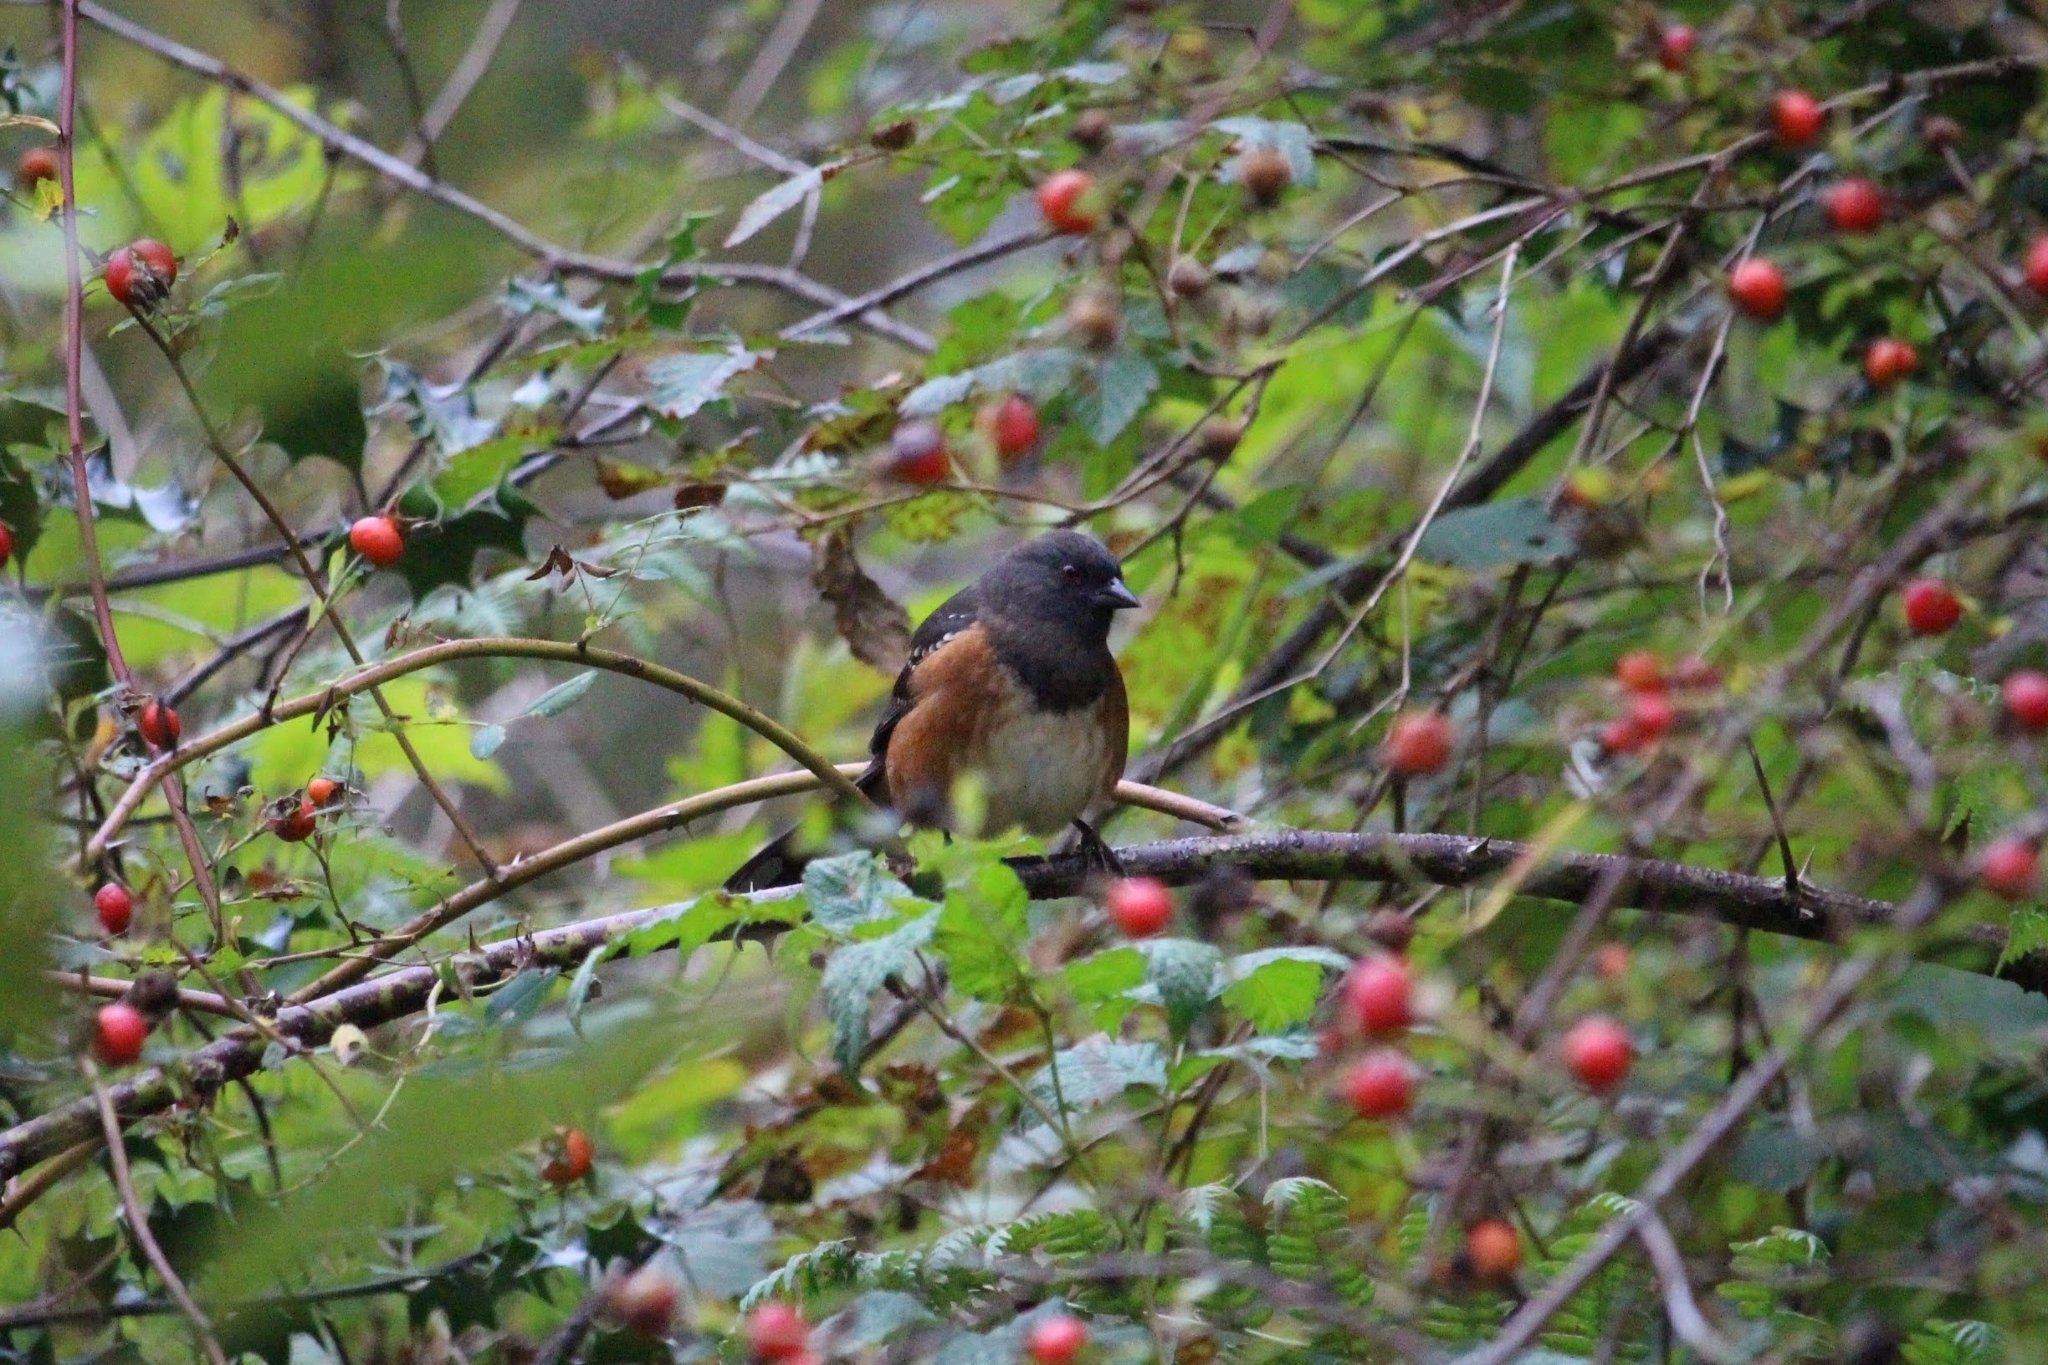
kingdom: Animalia
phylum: Chordata
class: Aves
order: Passeriformes
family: Passerellidae
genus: Pipilo
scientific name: Pipilo maculatus
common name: Spotted towhee
